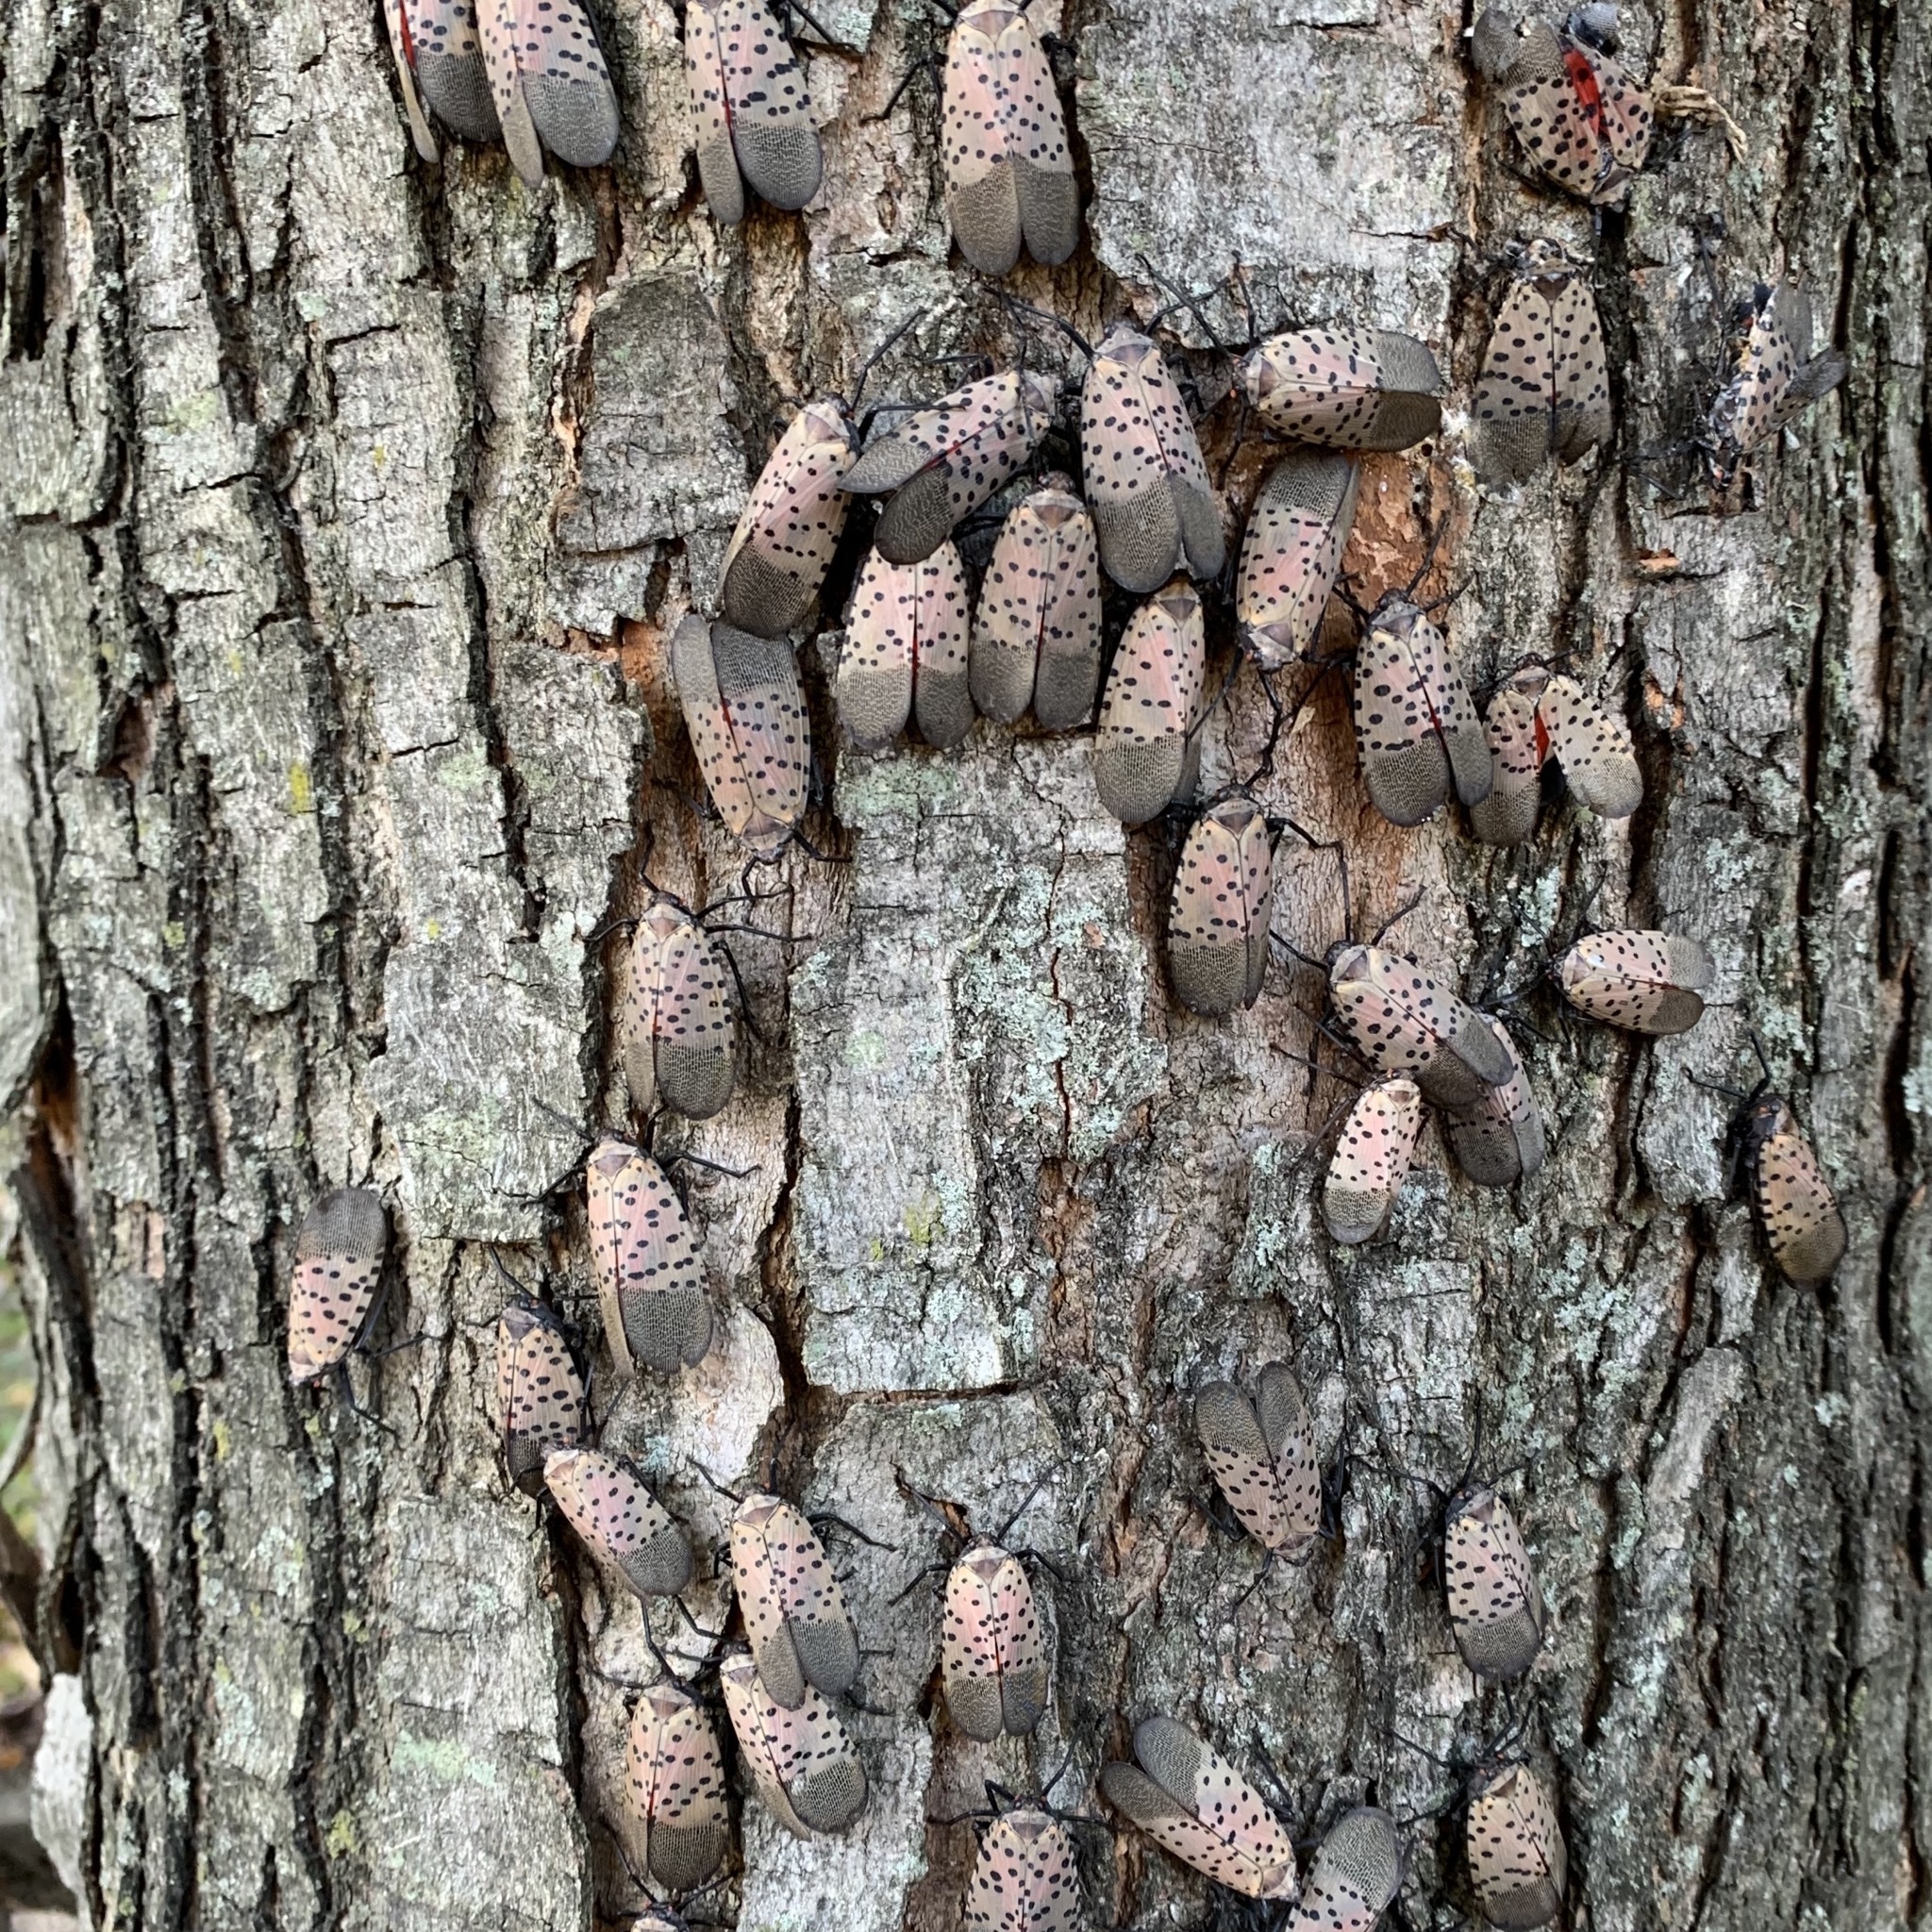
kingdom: Animalia
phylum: Arthropoda
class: Insecta
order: Hemiptera
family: Fulgoridae
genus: Lycorma
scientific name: Lycorma delicatula
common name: Spotted lanternfly
